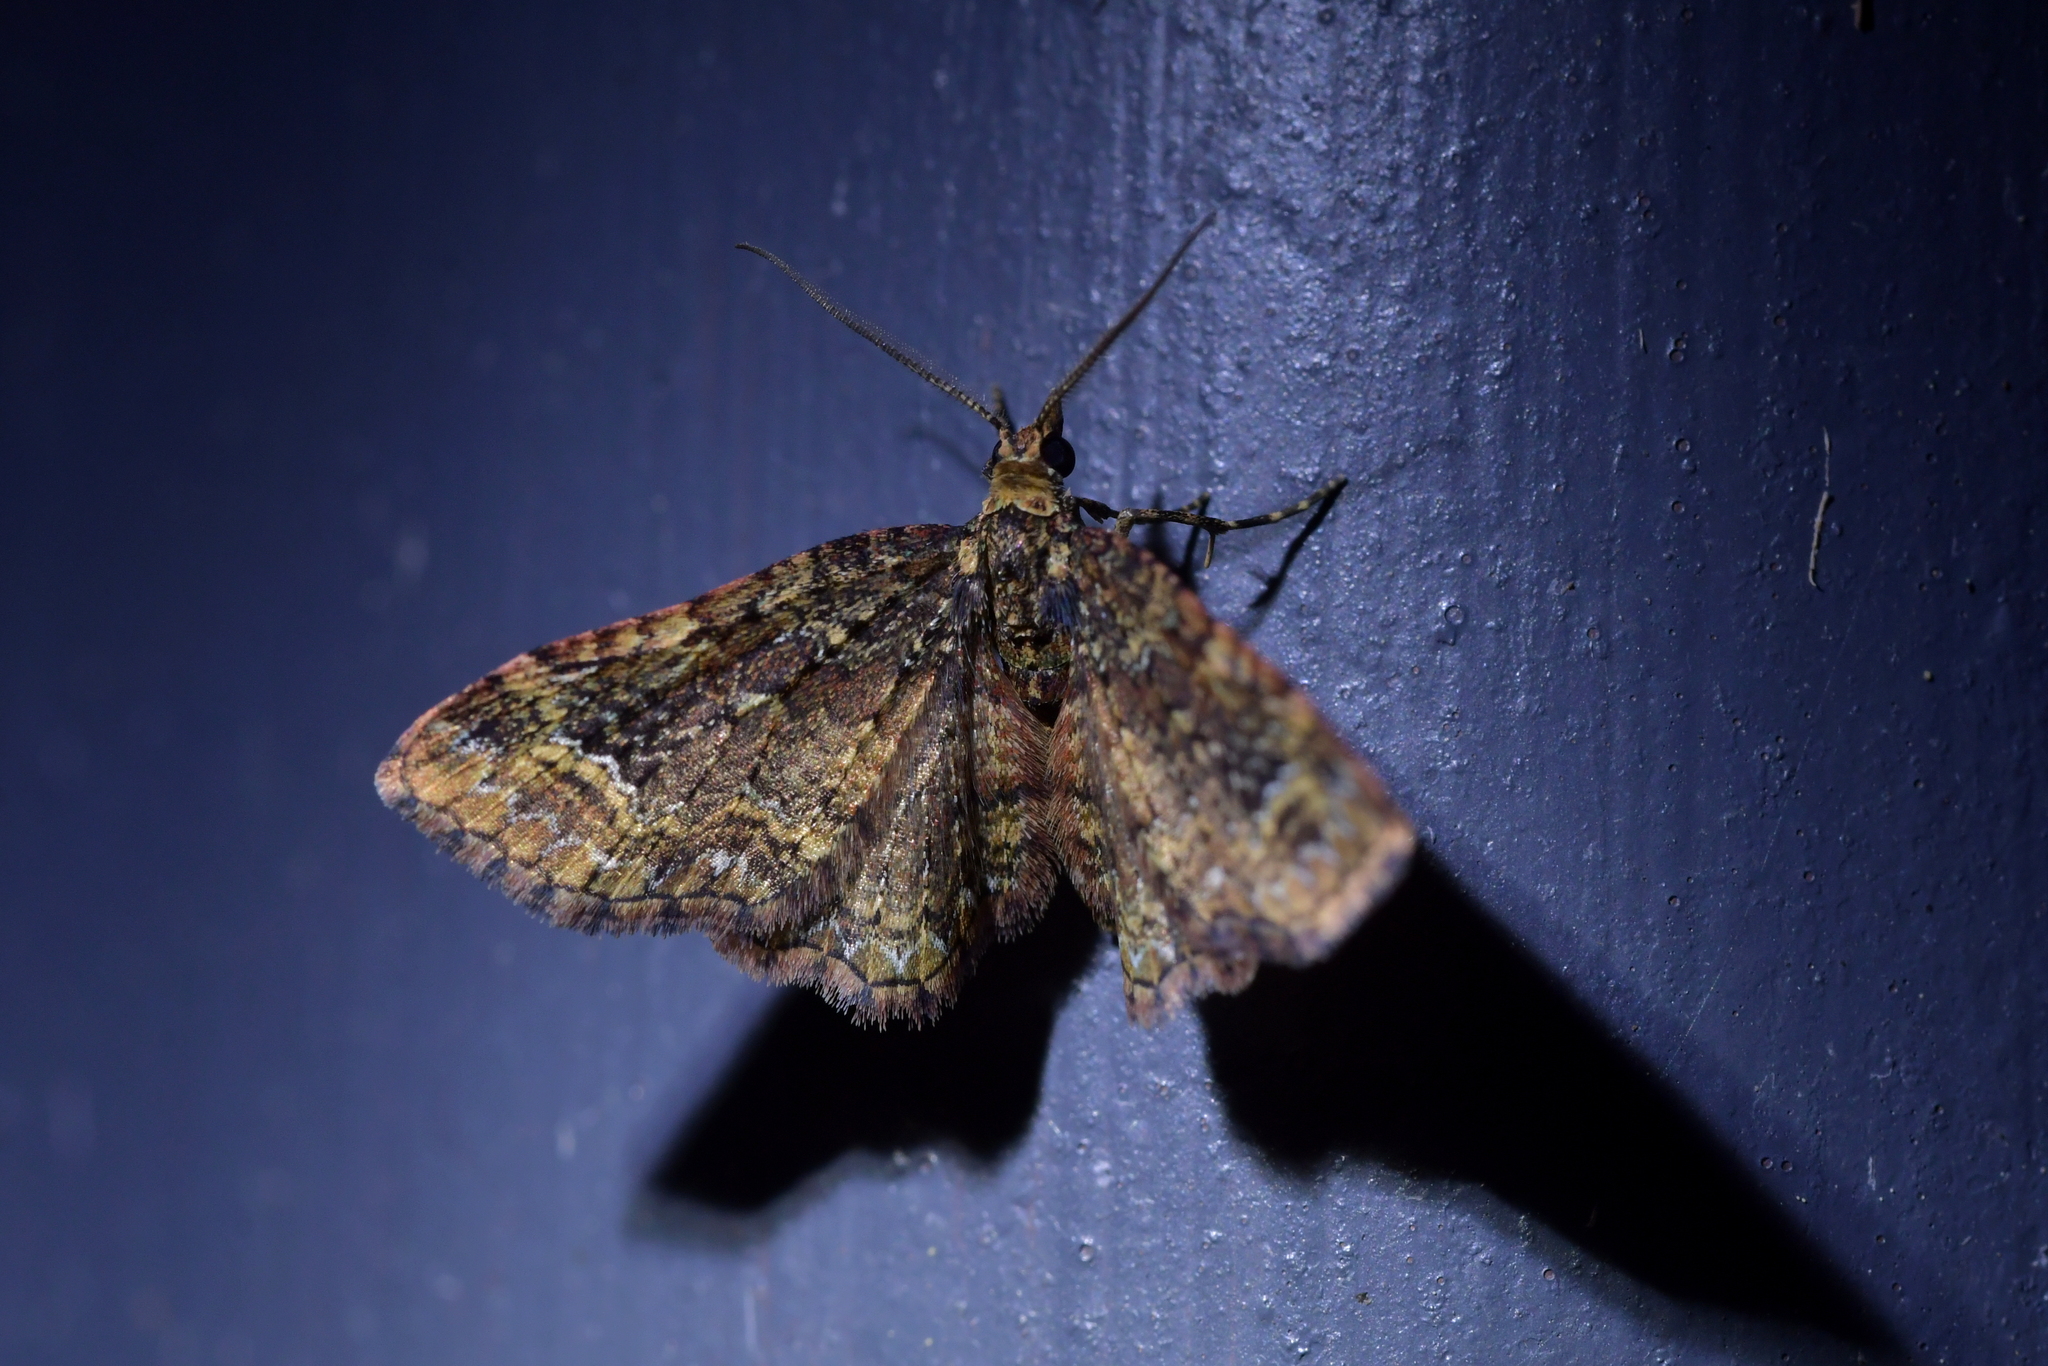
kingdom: Animalia
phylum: Arthropoda
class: Insecta
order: Lepidoptera
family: Geometridae
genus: Pasiphila
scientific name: Pasiphila lunata
